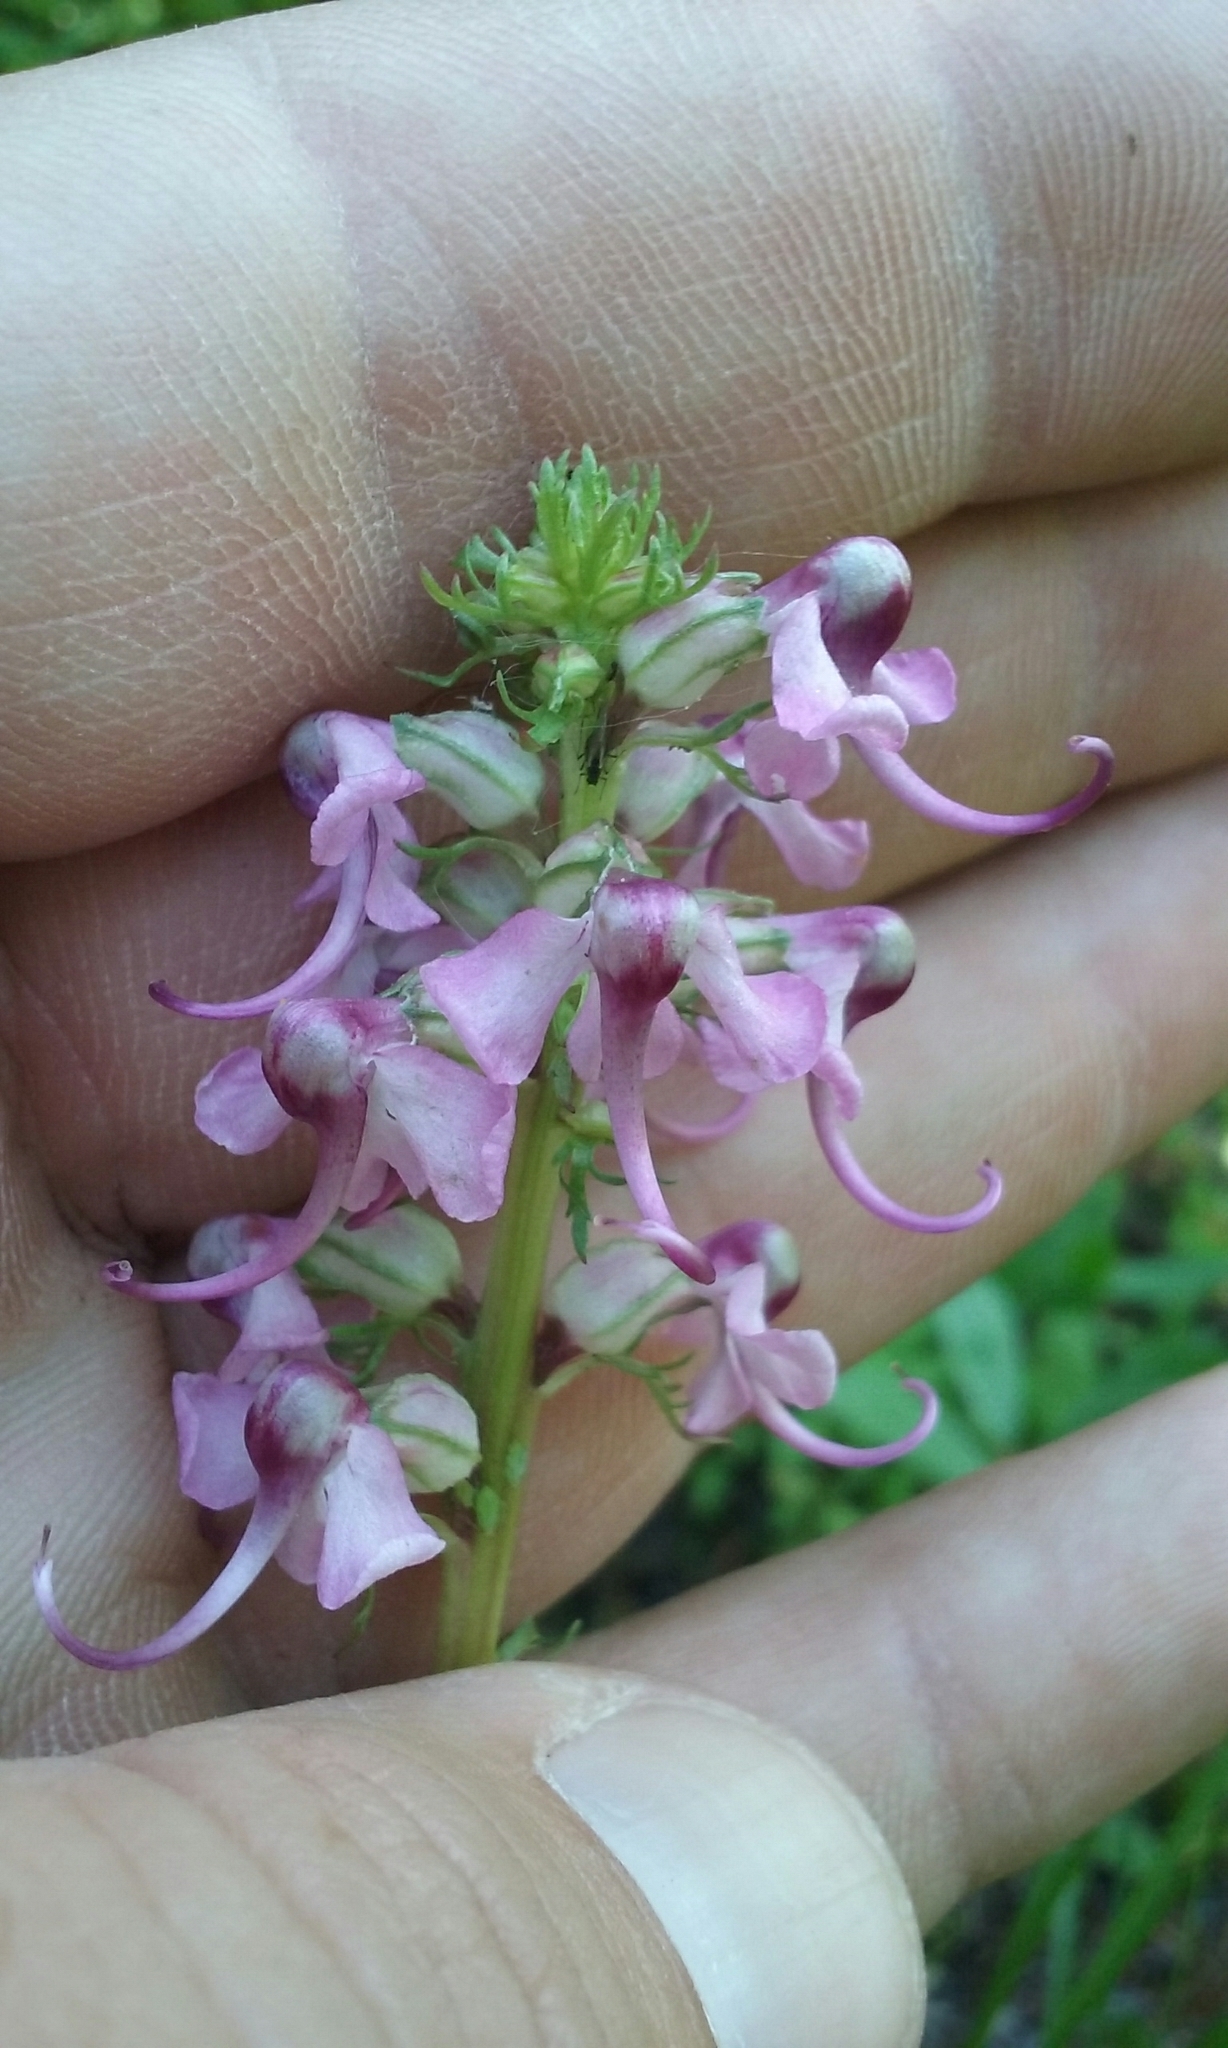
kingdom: Plantae
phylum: Tracheophyta
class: Magnoliopsida
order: Lamiales
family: Orobanchaceae
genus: Pedicularis
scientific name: Pedicularis groenlandica
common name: Elephant's-head
